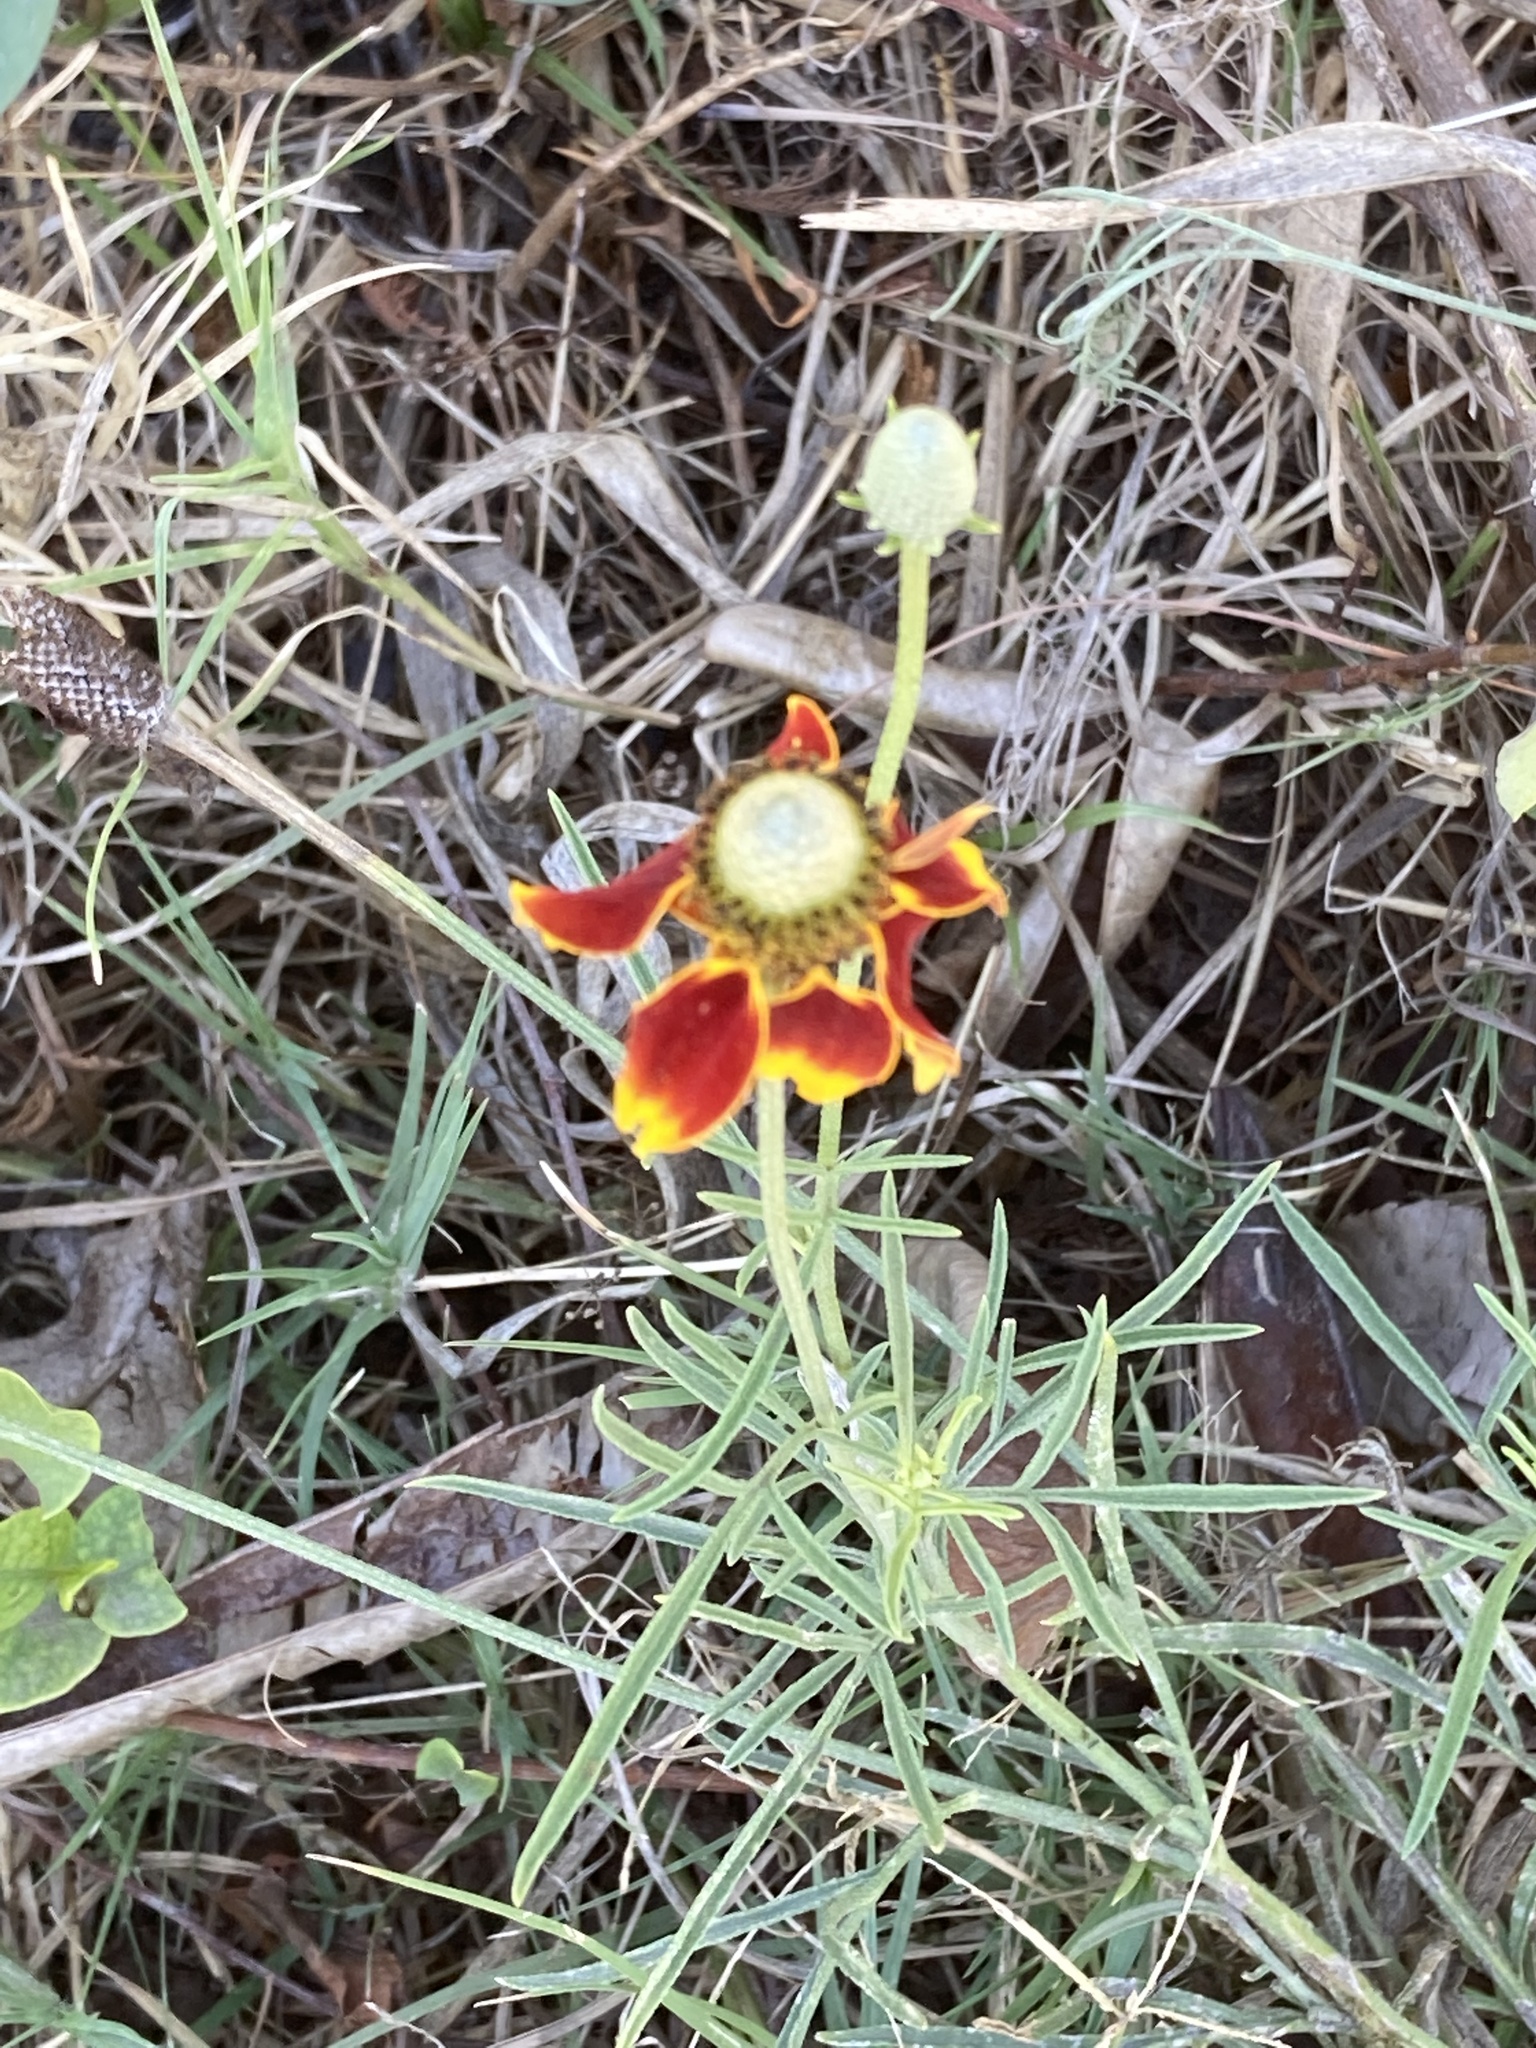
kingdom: Plantae
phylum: Tracheophyta
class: Magnoliopsida
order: Asterales
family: Asteraceae
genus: Ratibida
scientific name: Ratibida columnifera
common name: Prairie coneflower
